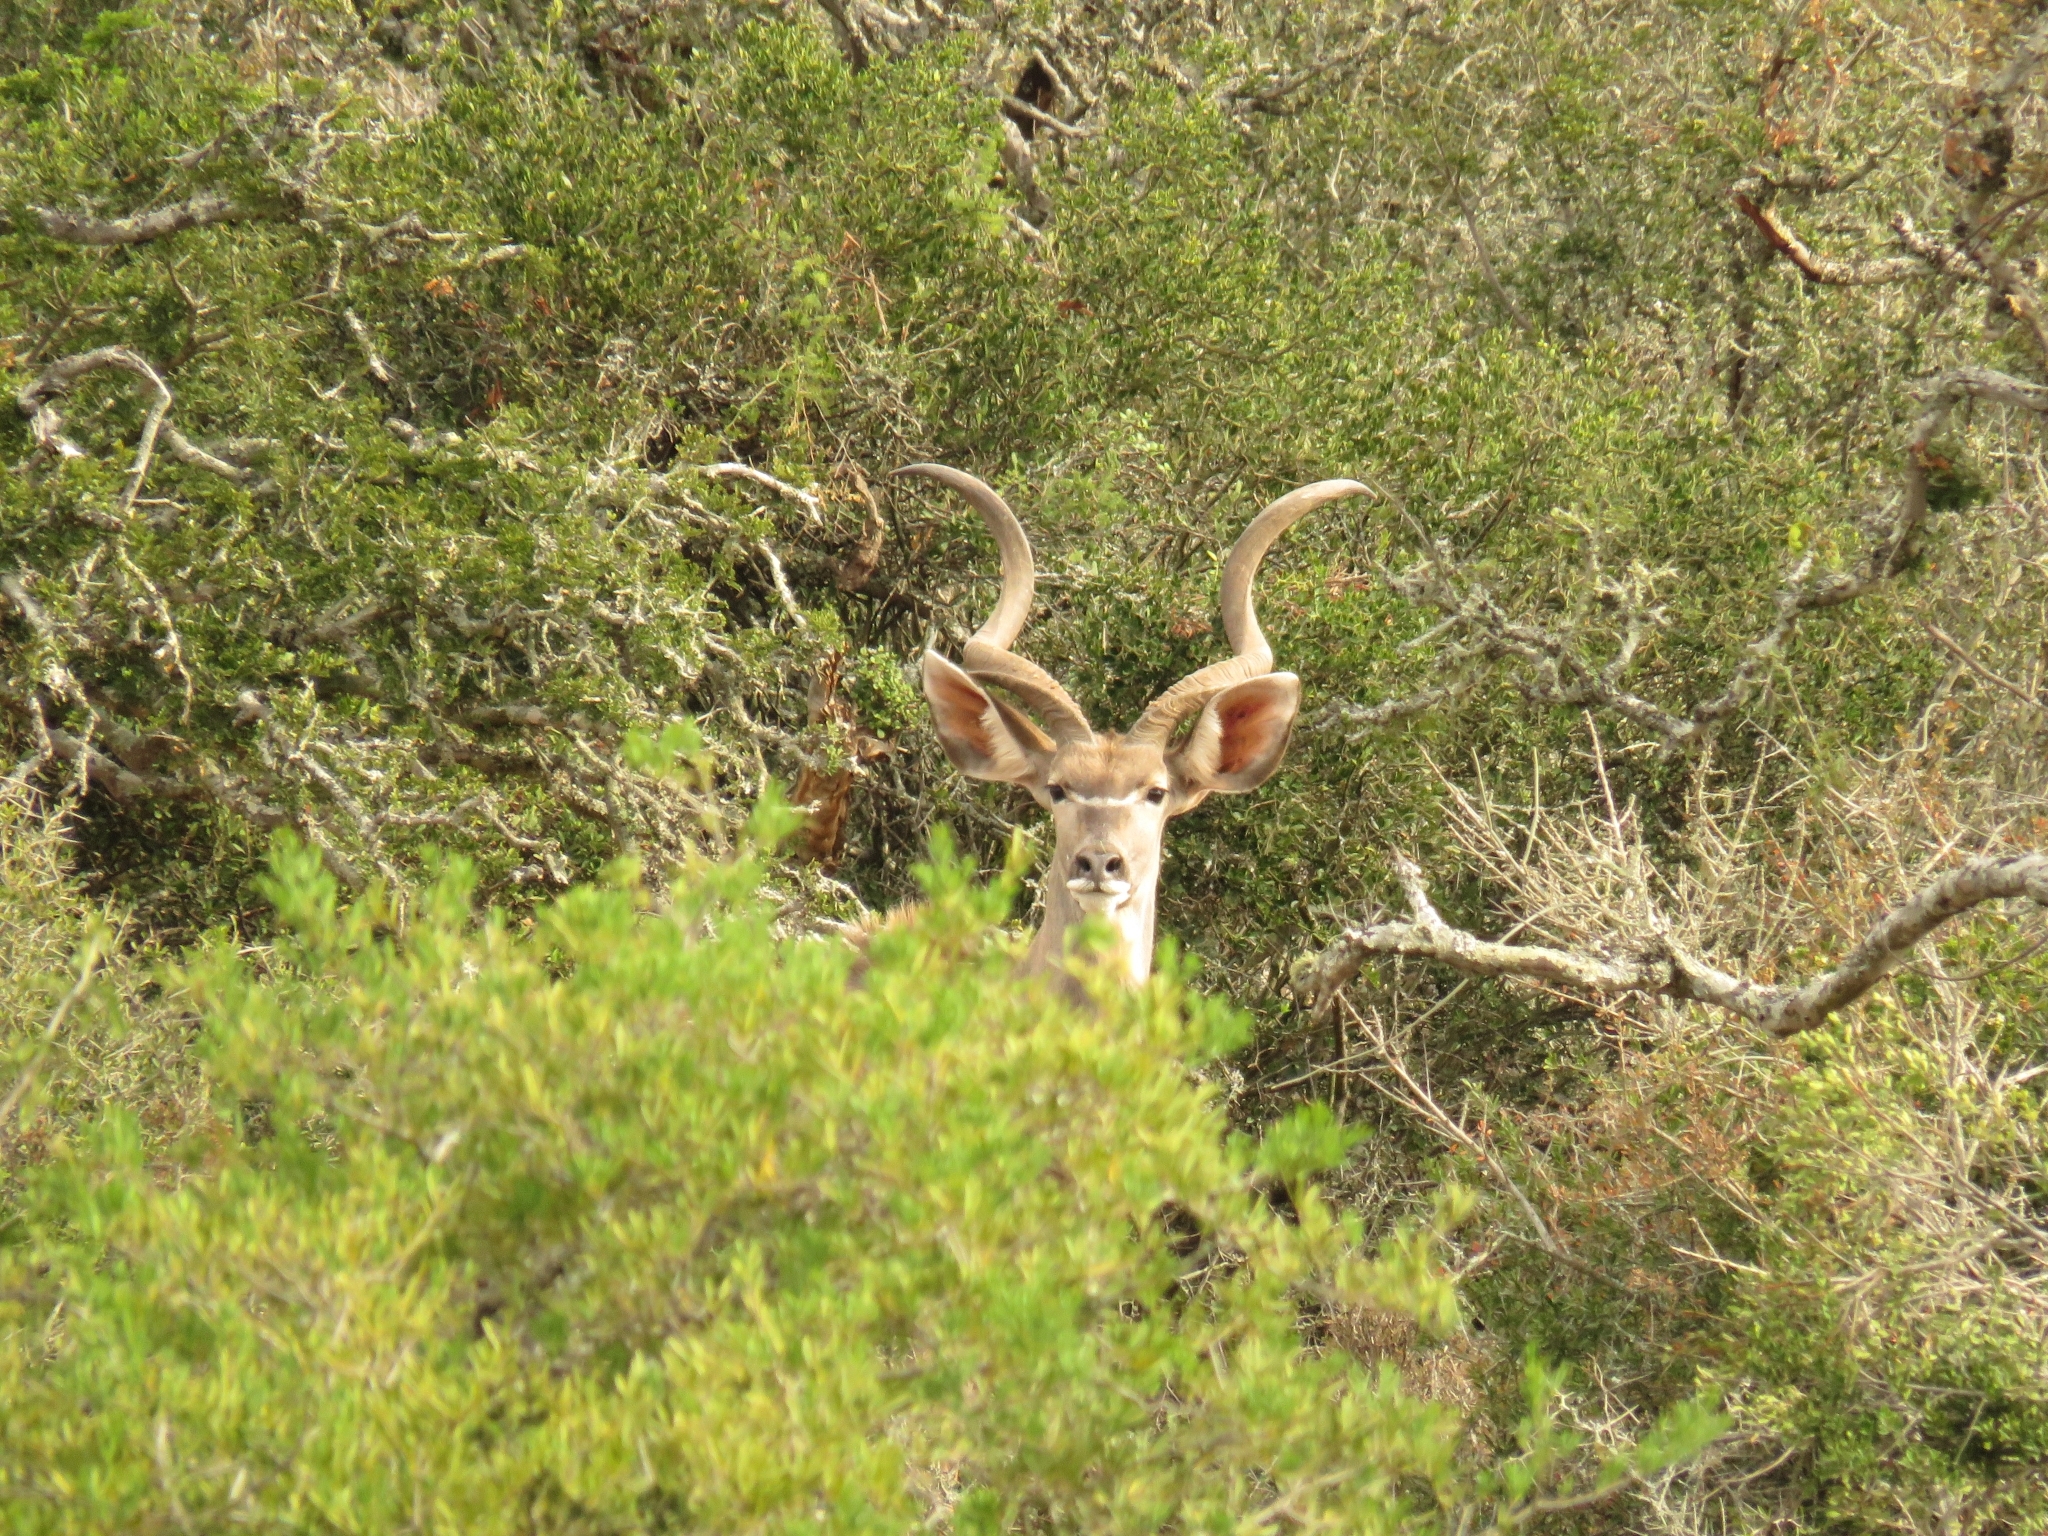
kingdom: Animalia
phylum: Chordata
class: Mammalia
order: Artiodactyla
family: Bovidae
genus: Tragelaphus
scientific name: Tragelaphus strepsiceros
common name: Greater kudu
